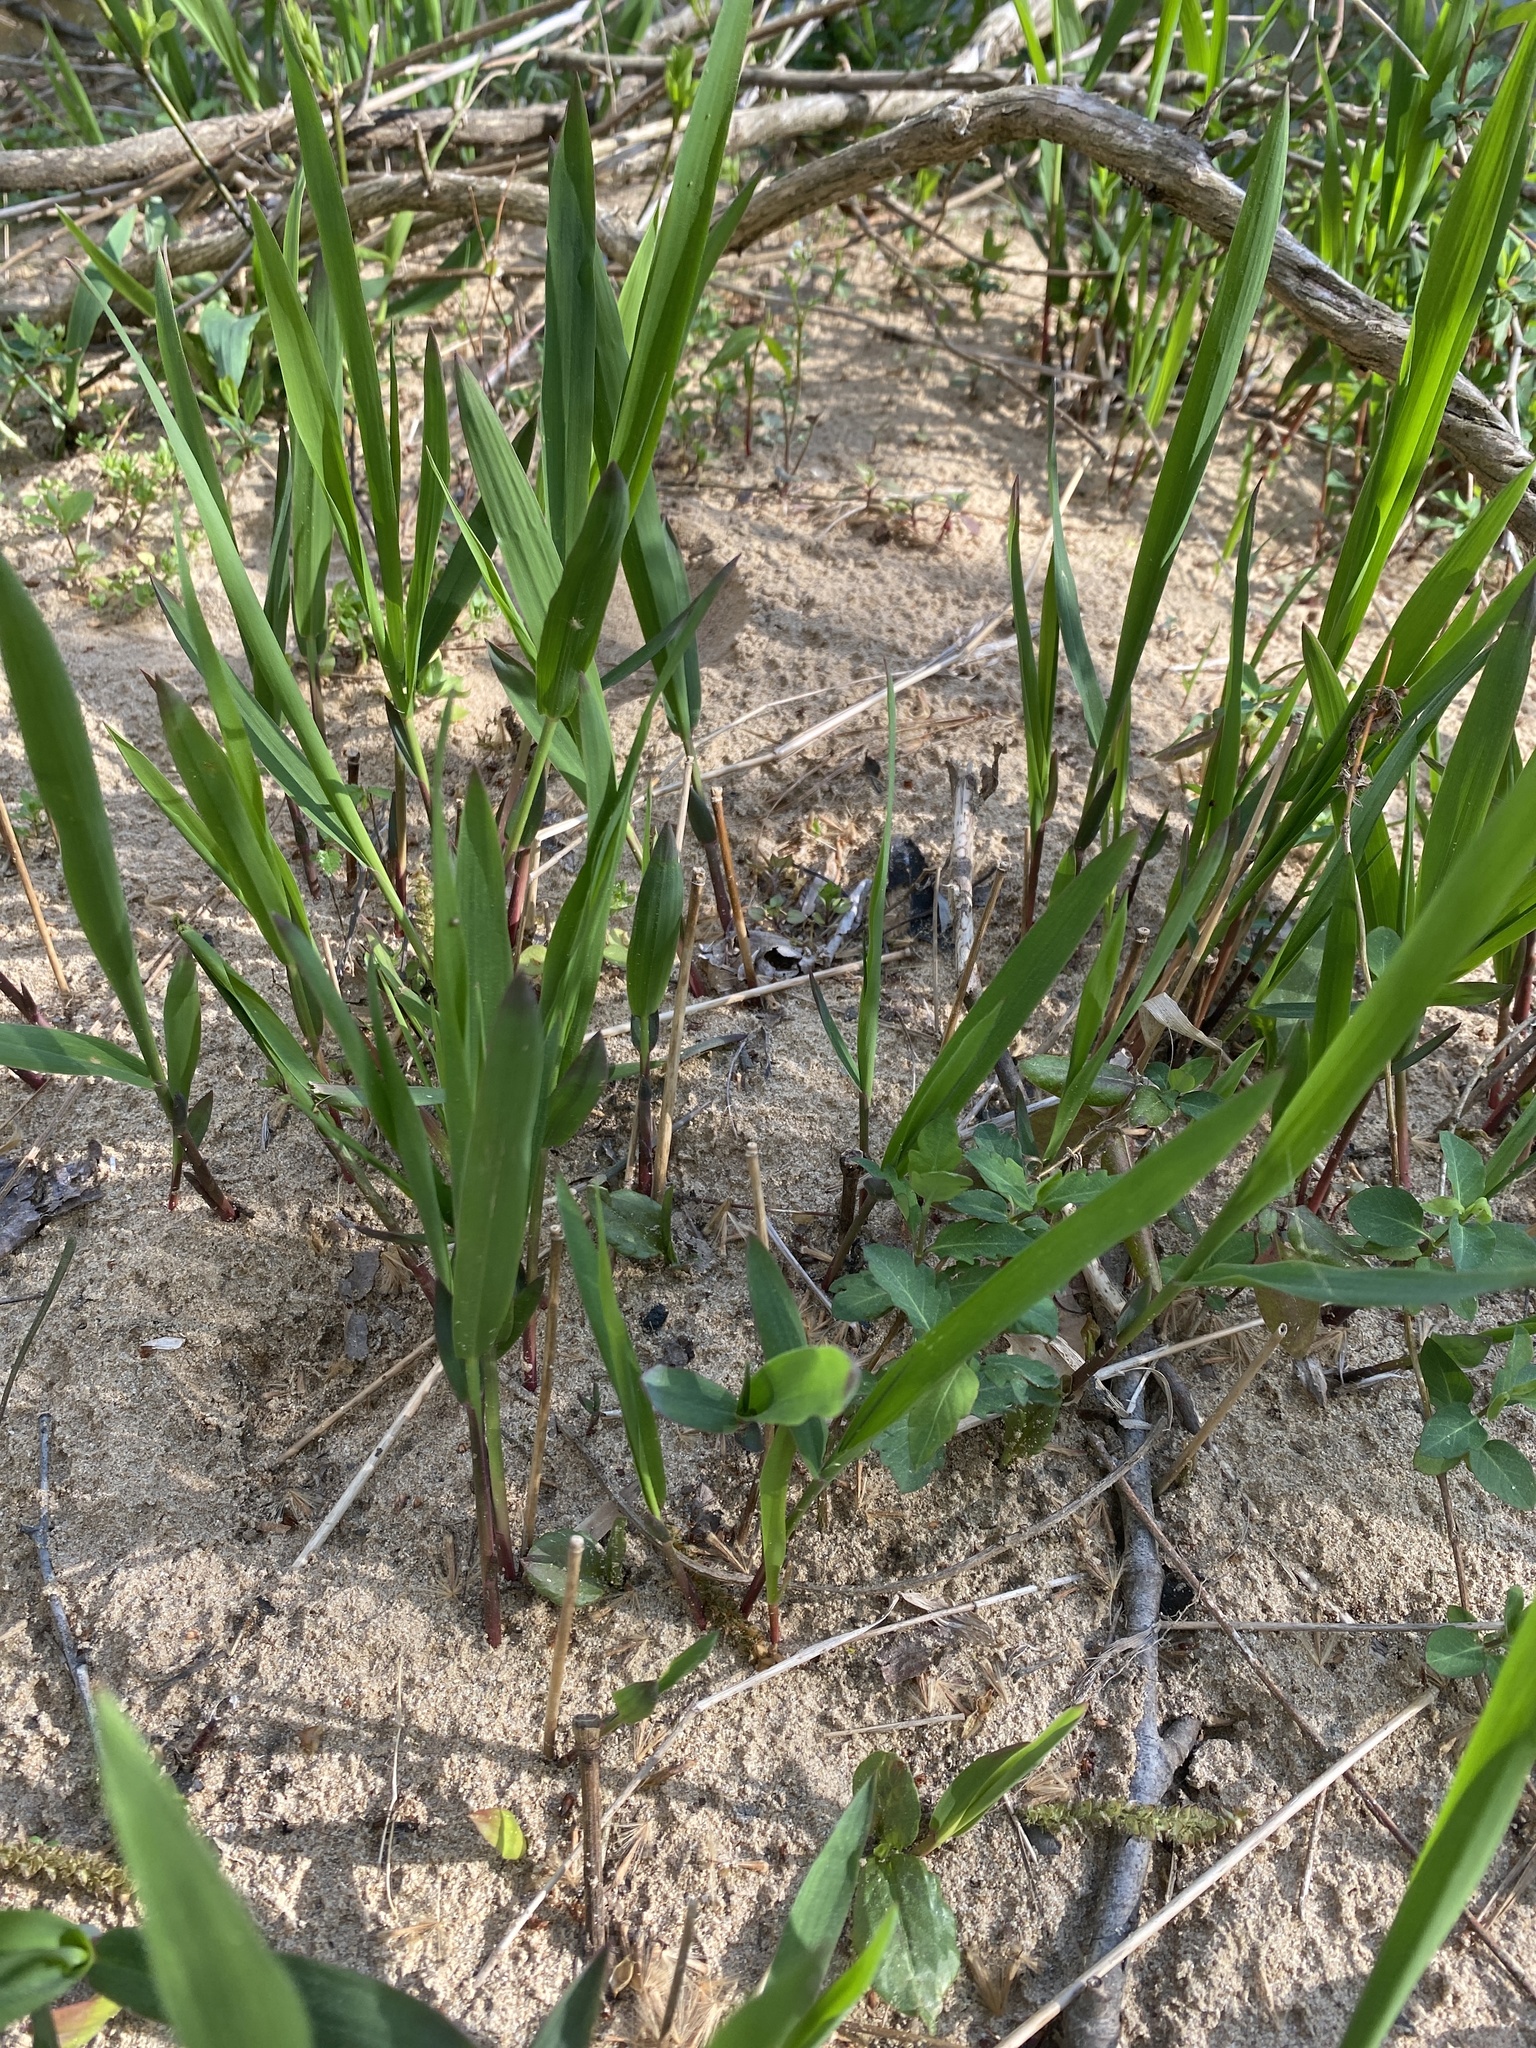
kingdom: Plantae
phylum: Tracheophyta
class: Liliopsida
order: Poales
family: Poaceae
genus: Chasmanthium
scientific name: Chasmanthium latifolium
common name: Broad-leaved chasmanthium
